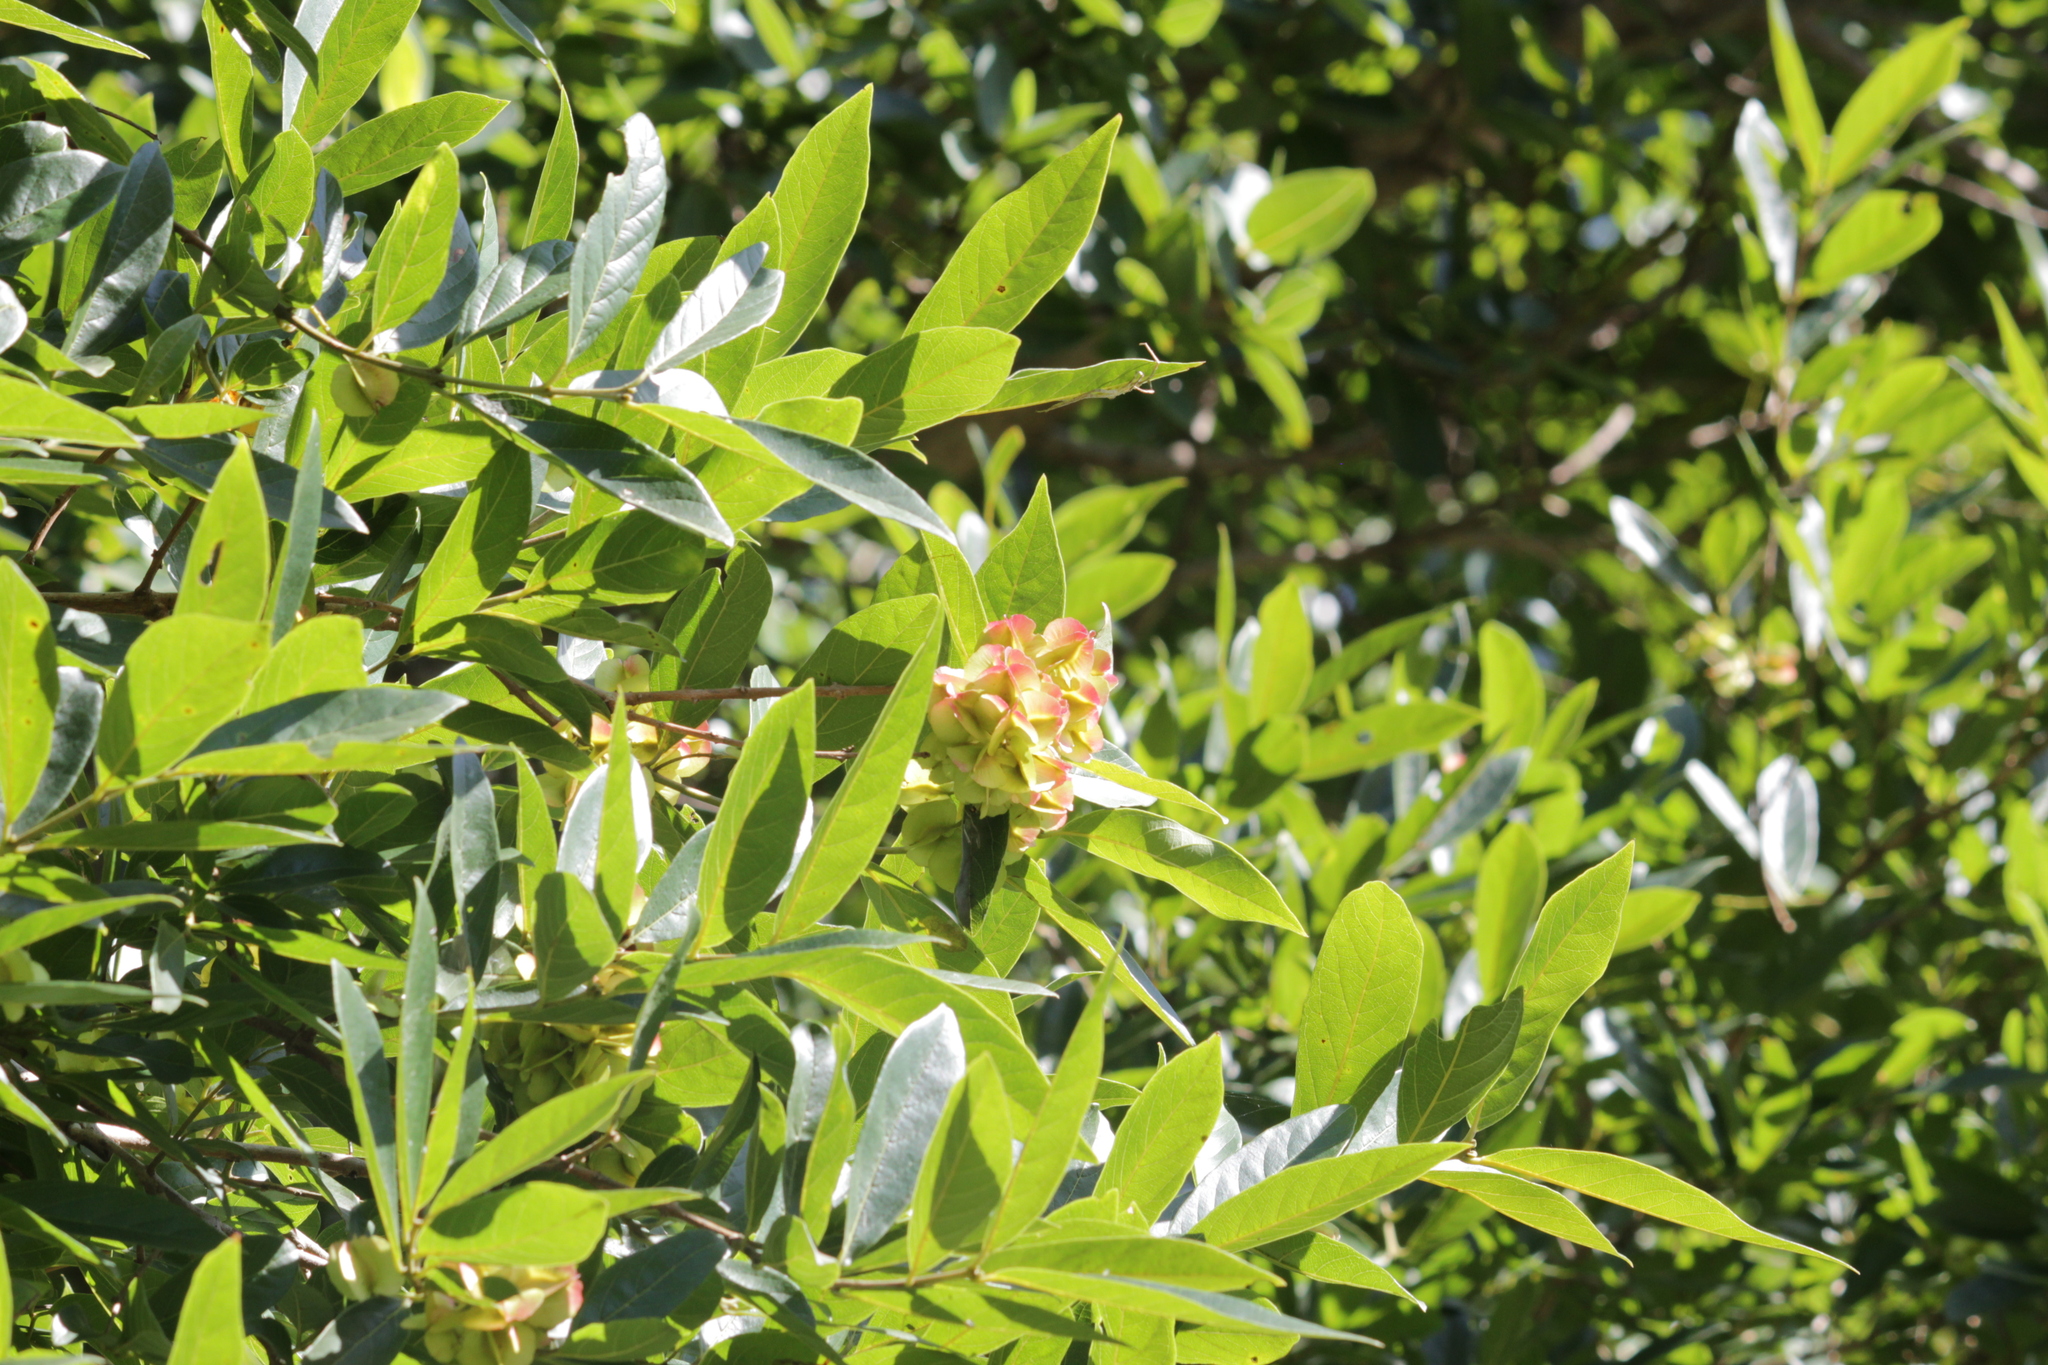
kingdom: Plantae
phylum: Tracheophyta
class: Magnoliopsida
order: Myrtales
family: Combretaceae
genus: Combretum
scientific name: Combretum kraussii
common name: Forest bushwillow
